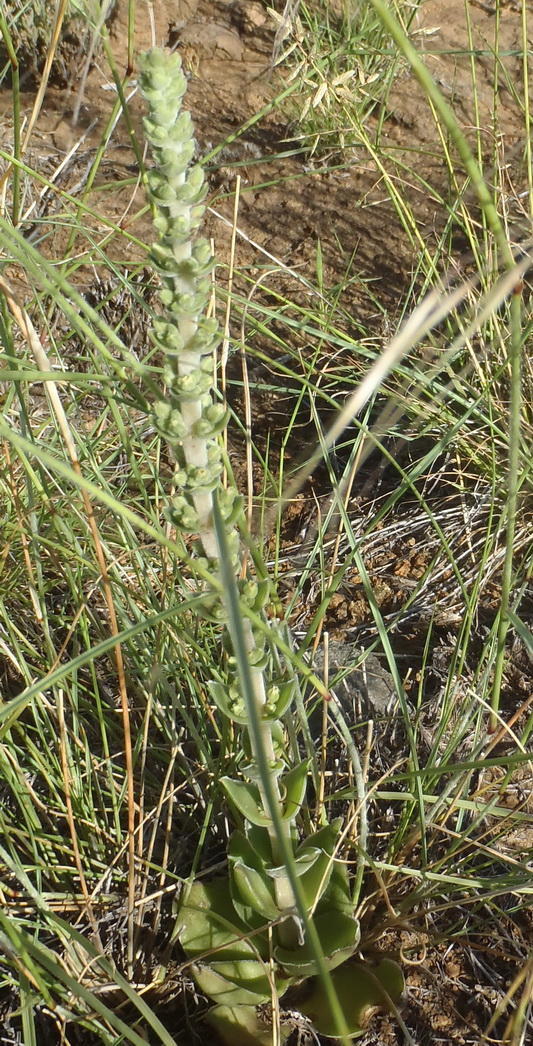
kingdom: Plantae
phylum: Tracheophyta
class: Magnoliopsida
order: Saxifragales
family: Crassulaceae
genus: Crassula
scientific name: Crassula nodulosa
